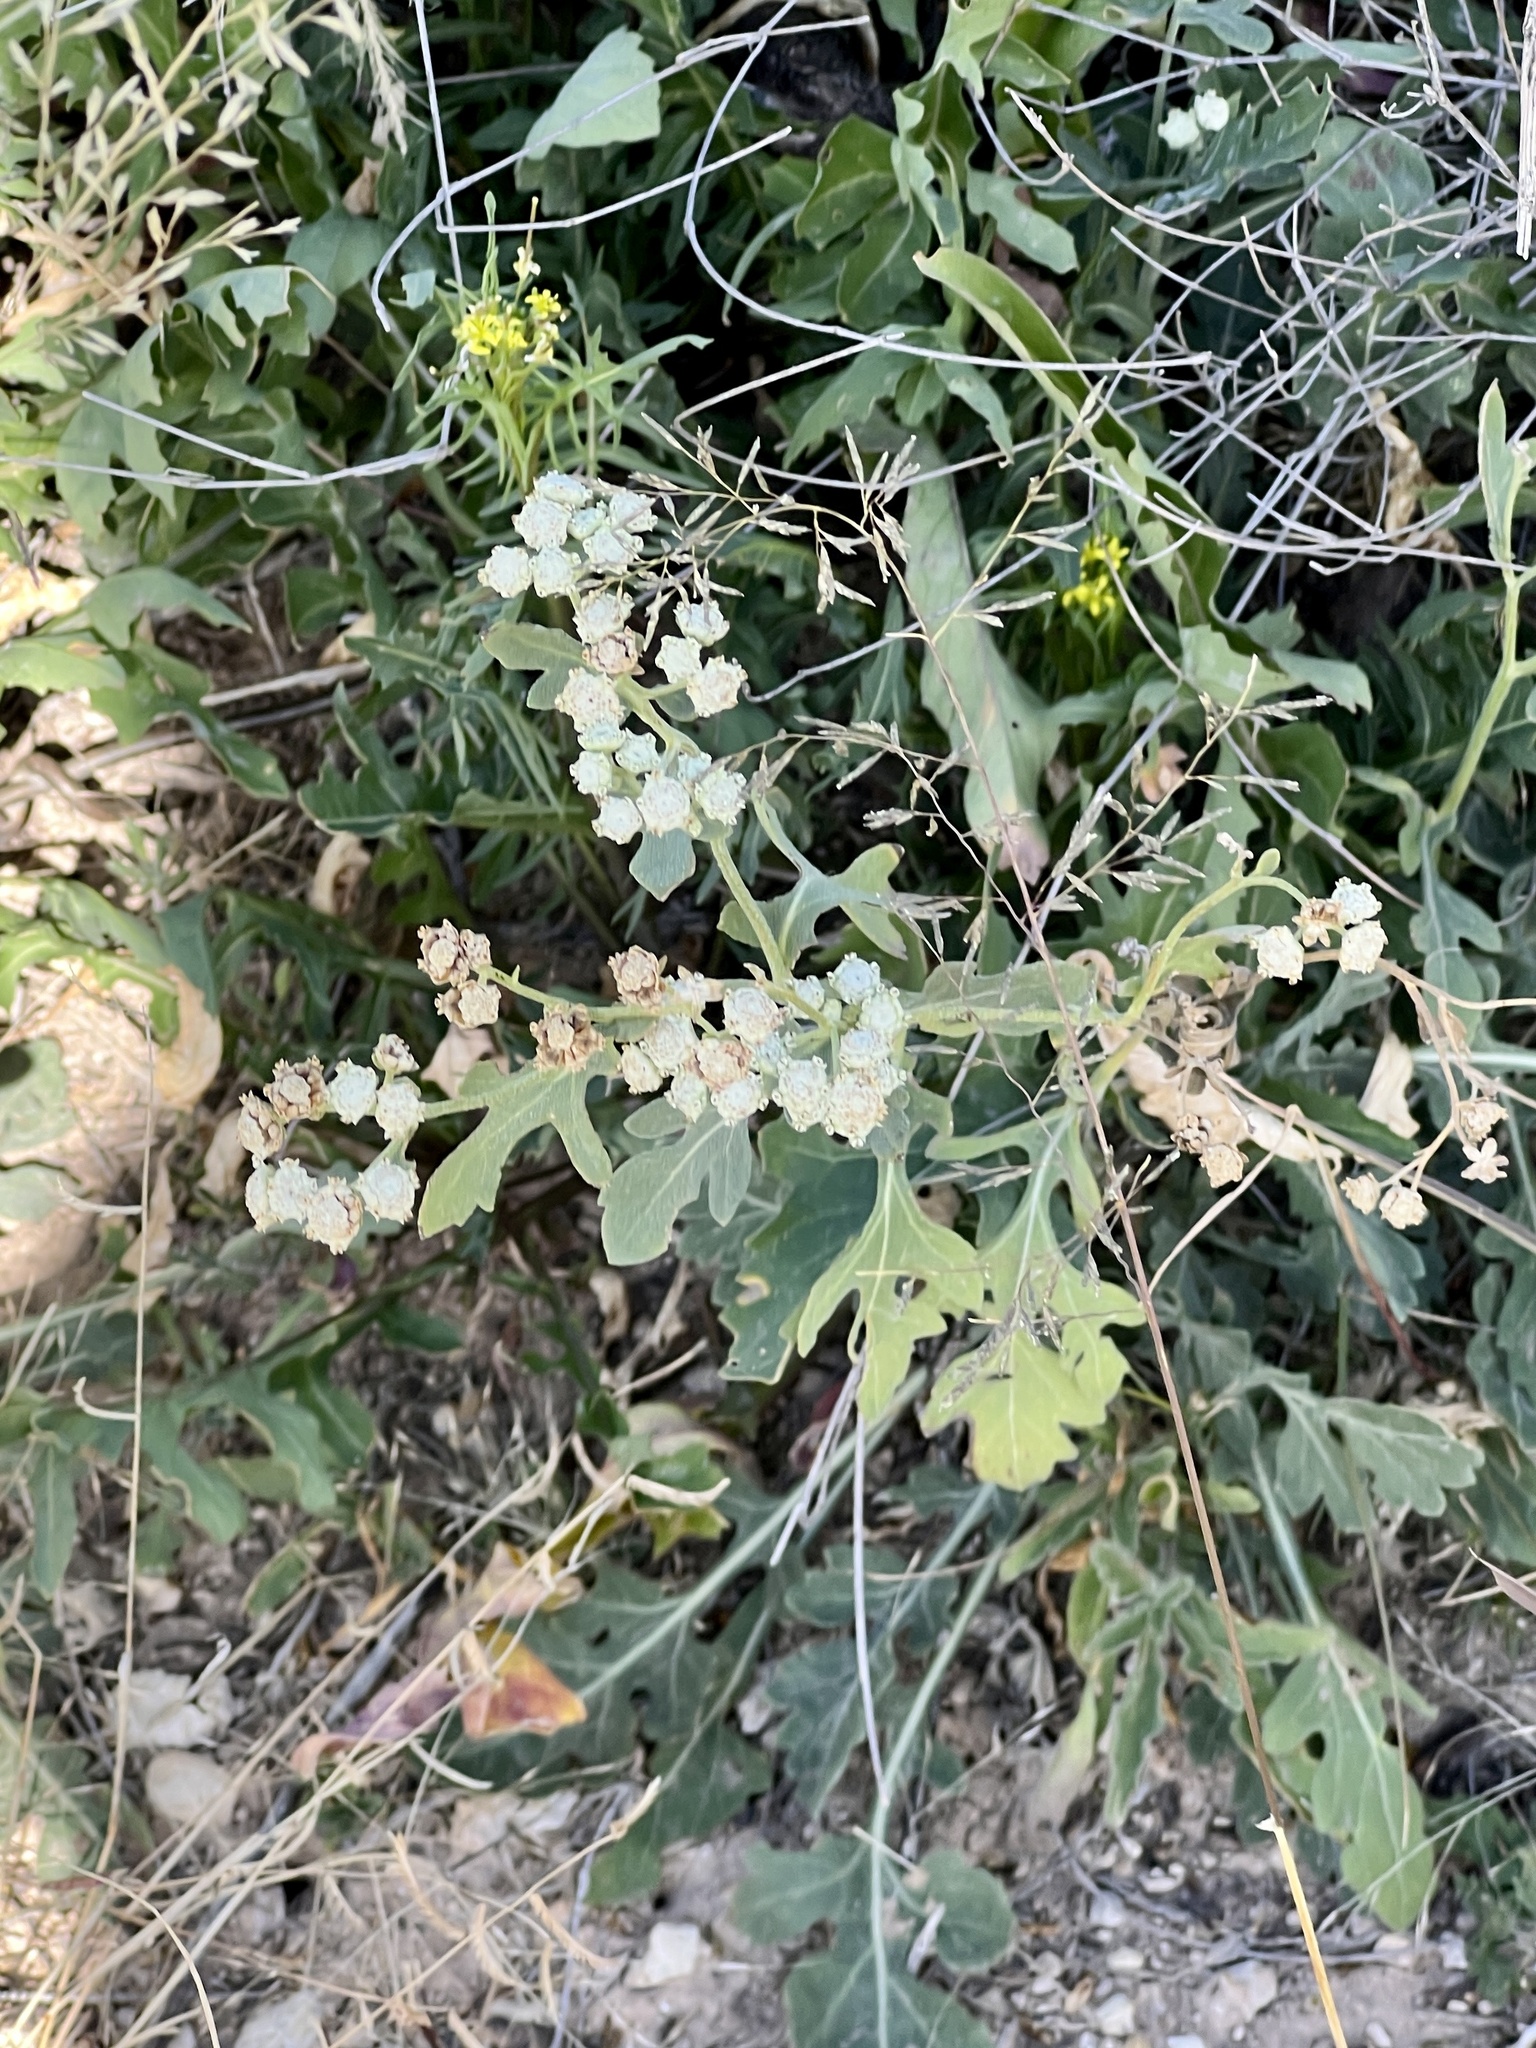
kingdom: Plantae
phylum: Tracheophyta
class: Magnoliopsida
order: Asterales
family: Asteraceae
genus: Parthenium
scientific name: Parthenium confertum
